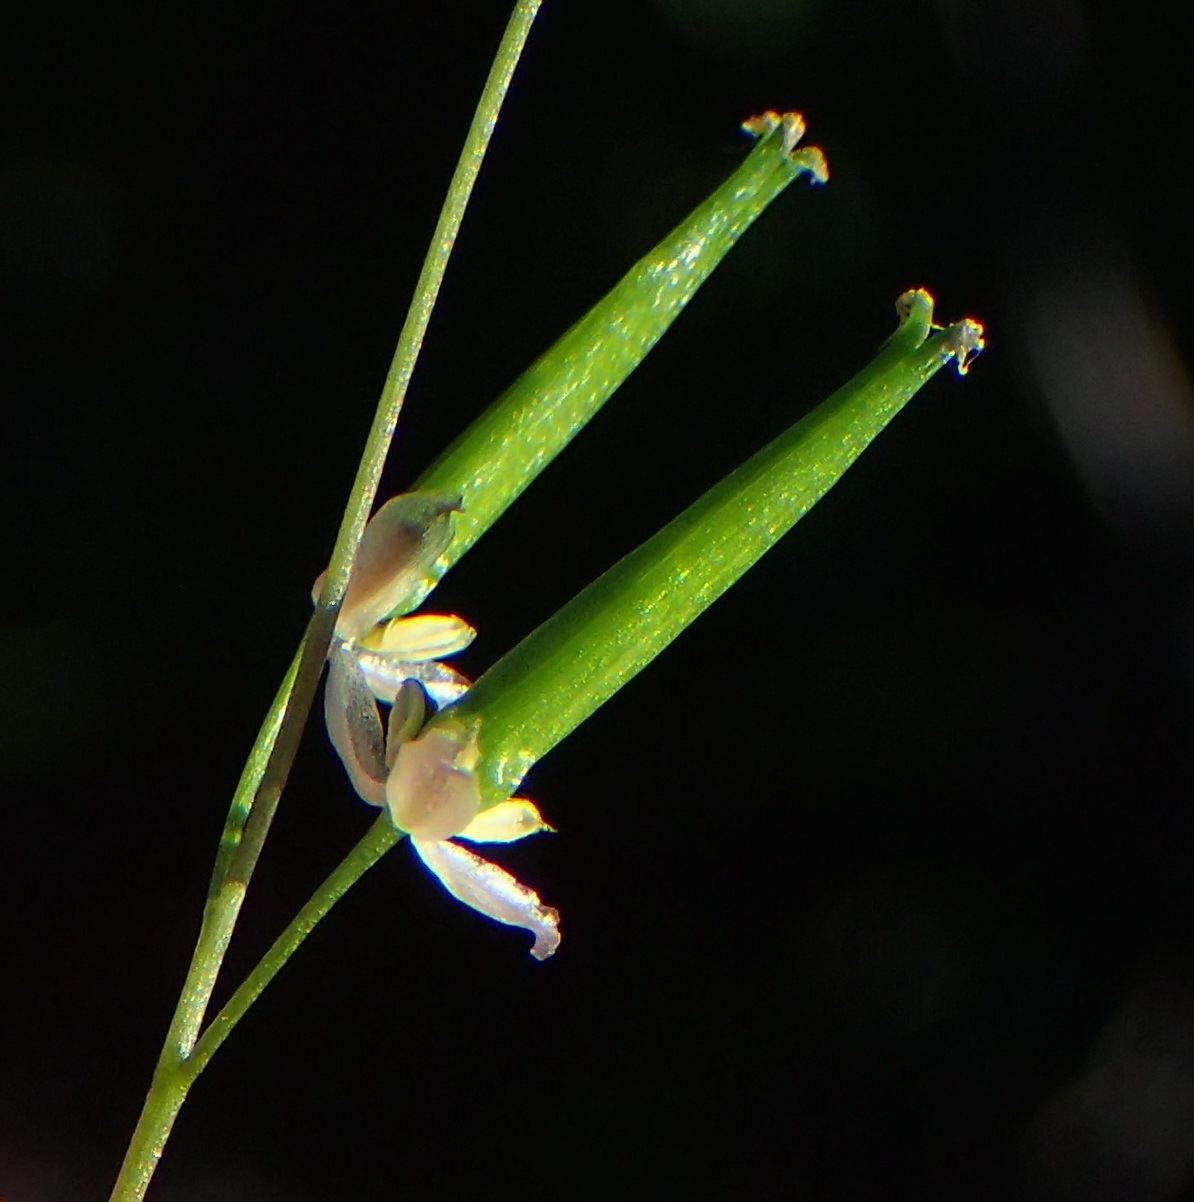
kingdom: Plantae
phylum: Tracheophyta
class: Liliopsida
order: Alismatales
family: Juncaginaceae
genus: Triglochin
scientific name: Triglochin bulbosa
